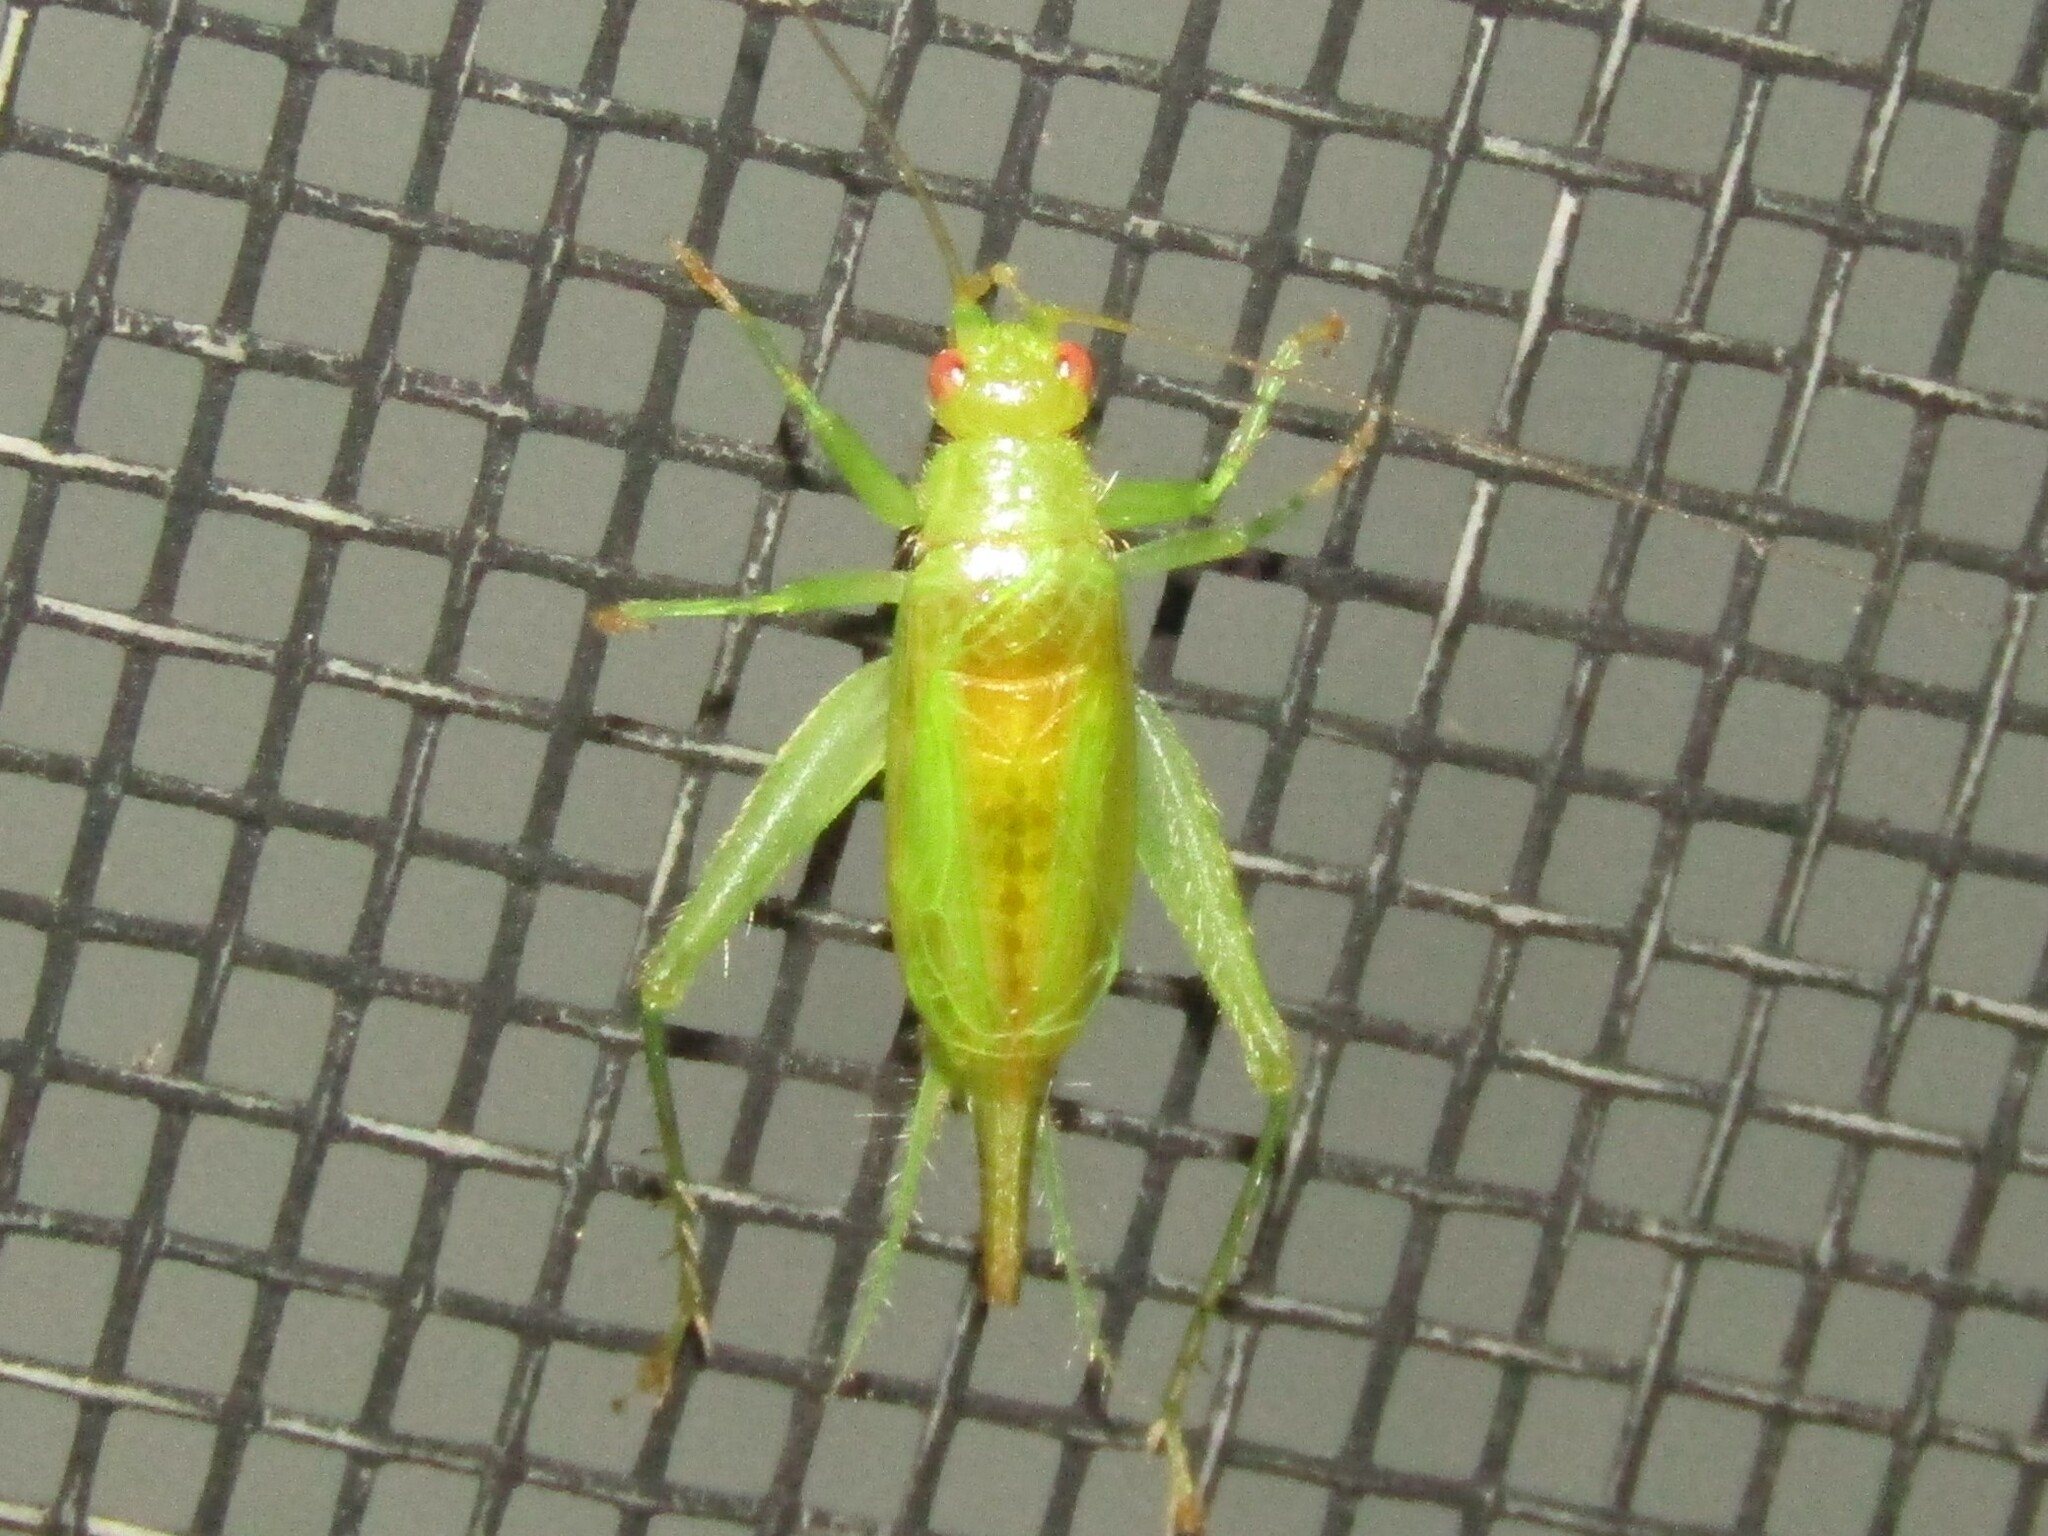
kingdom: Animalia
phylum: Arthropoda
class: Insecta
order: Orthoptera
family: Trigonidiidae
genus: Cyrtoxipha
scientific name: Cyrtoxipha columbiana
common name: Columbian trig
